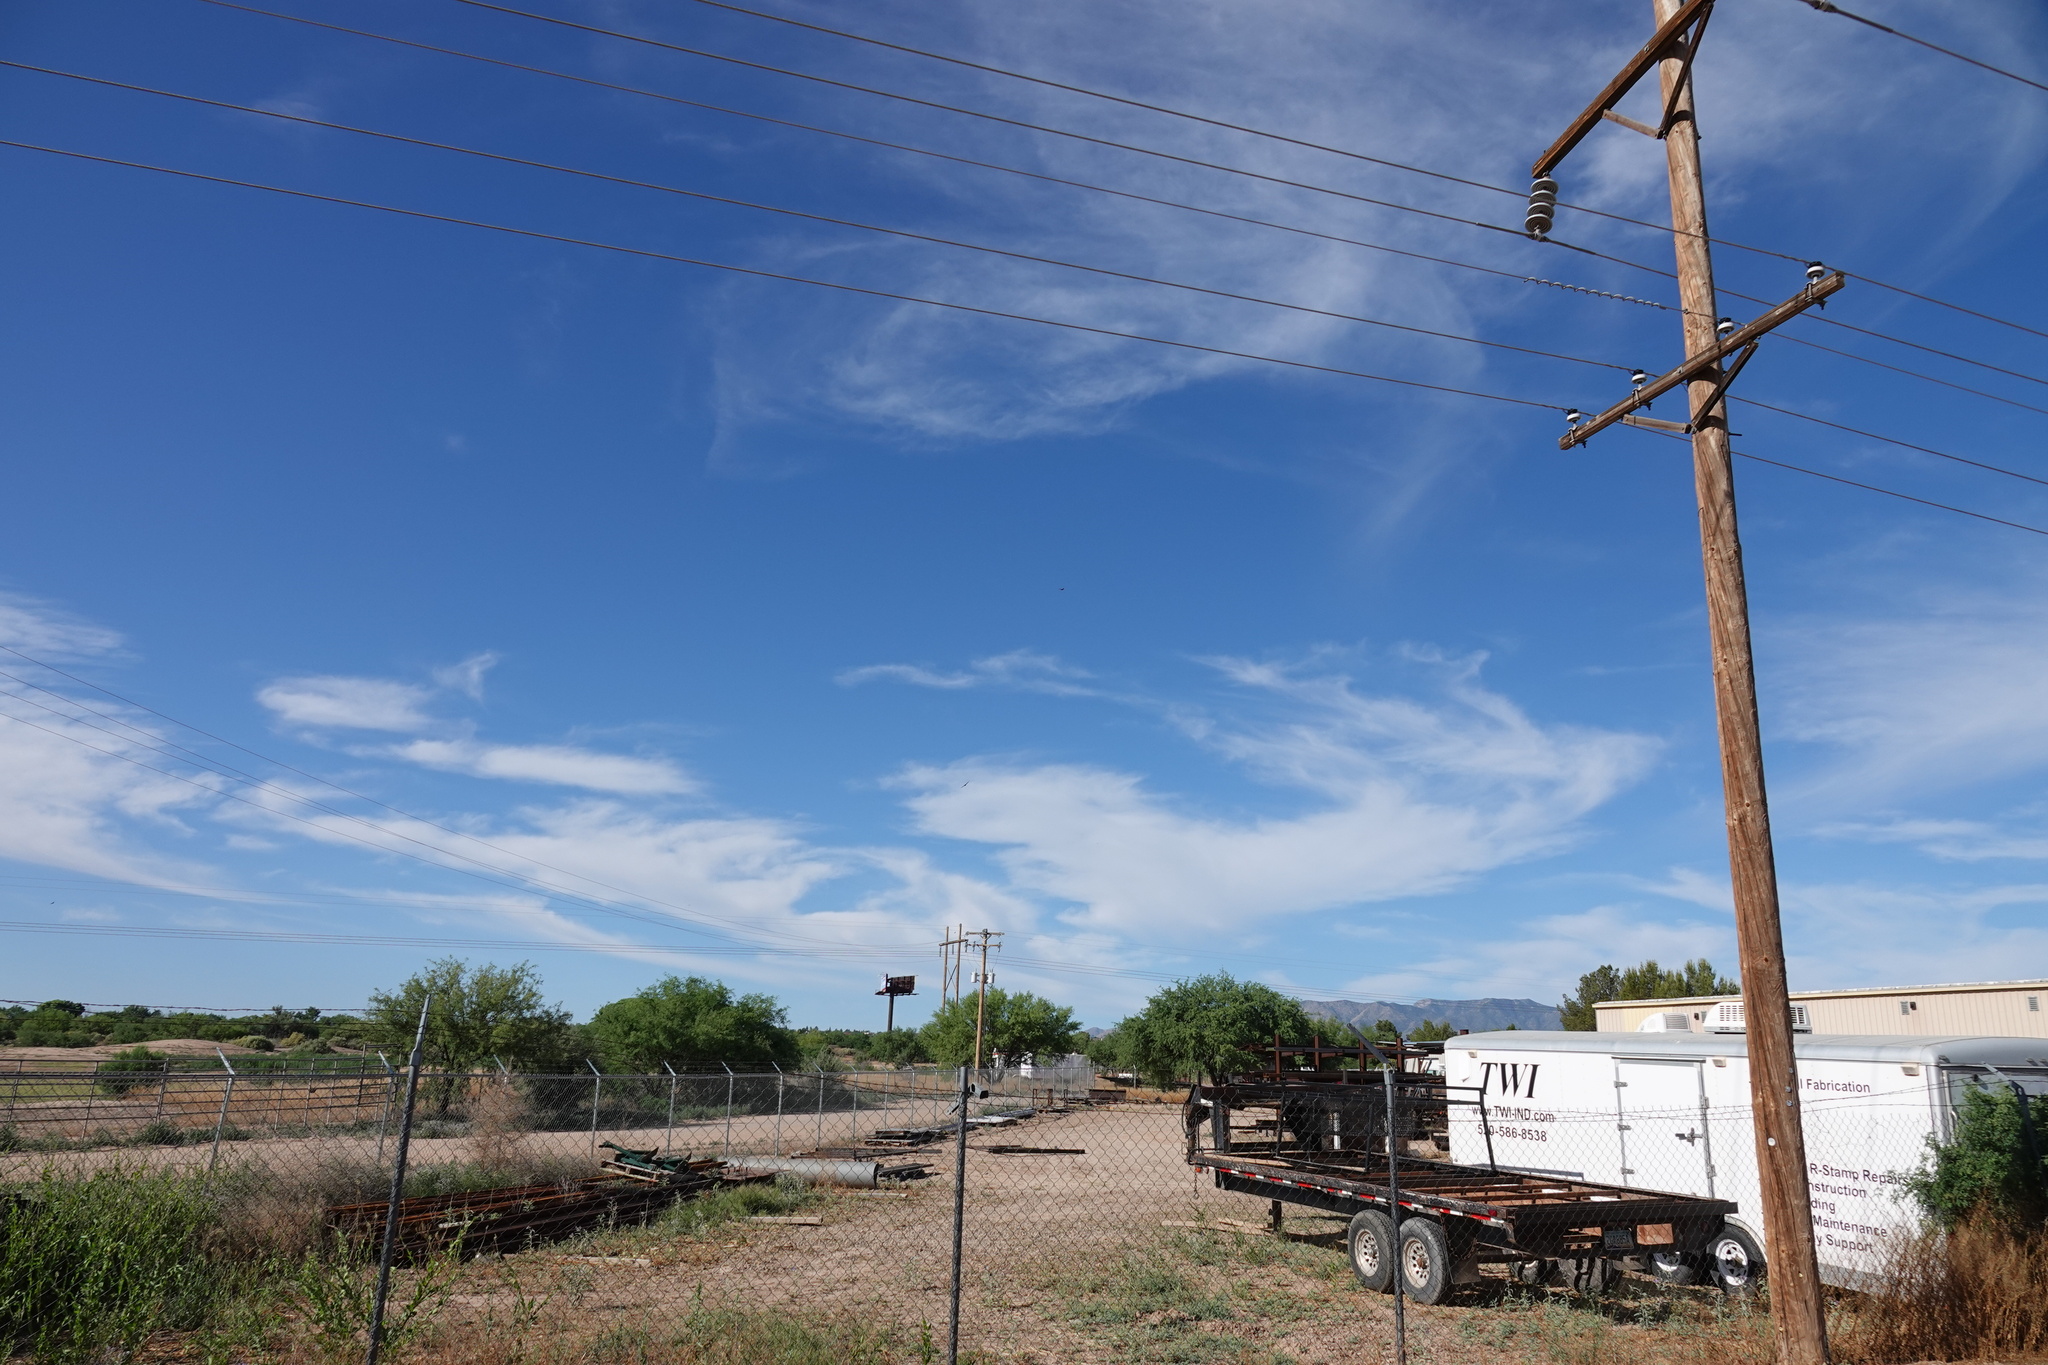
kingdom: Animalia
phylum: Chordata
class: Aves
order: Accipitriformes
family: Cathartidae
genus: Cathartes
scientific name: Cathartes aura
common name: Turkey vulture
